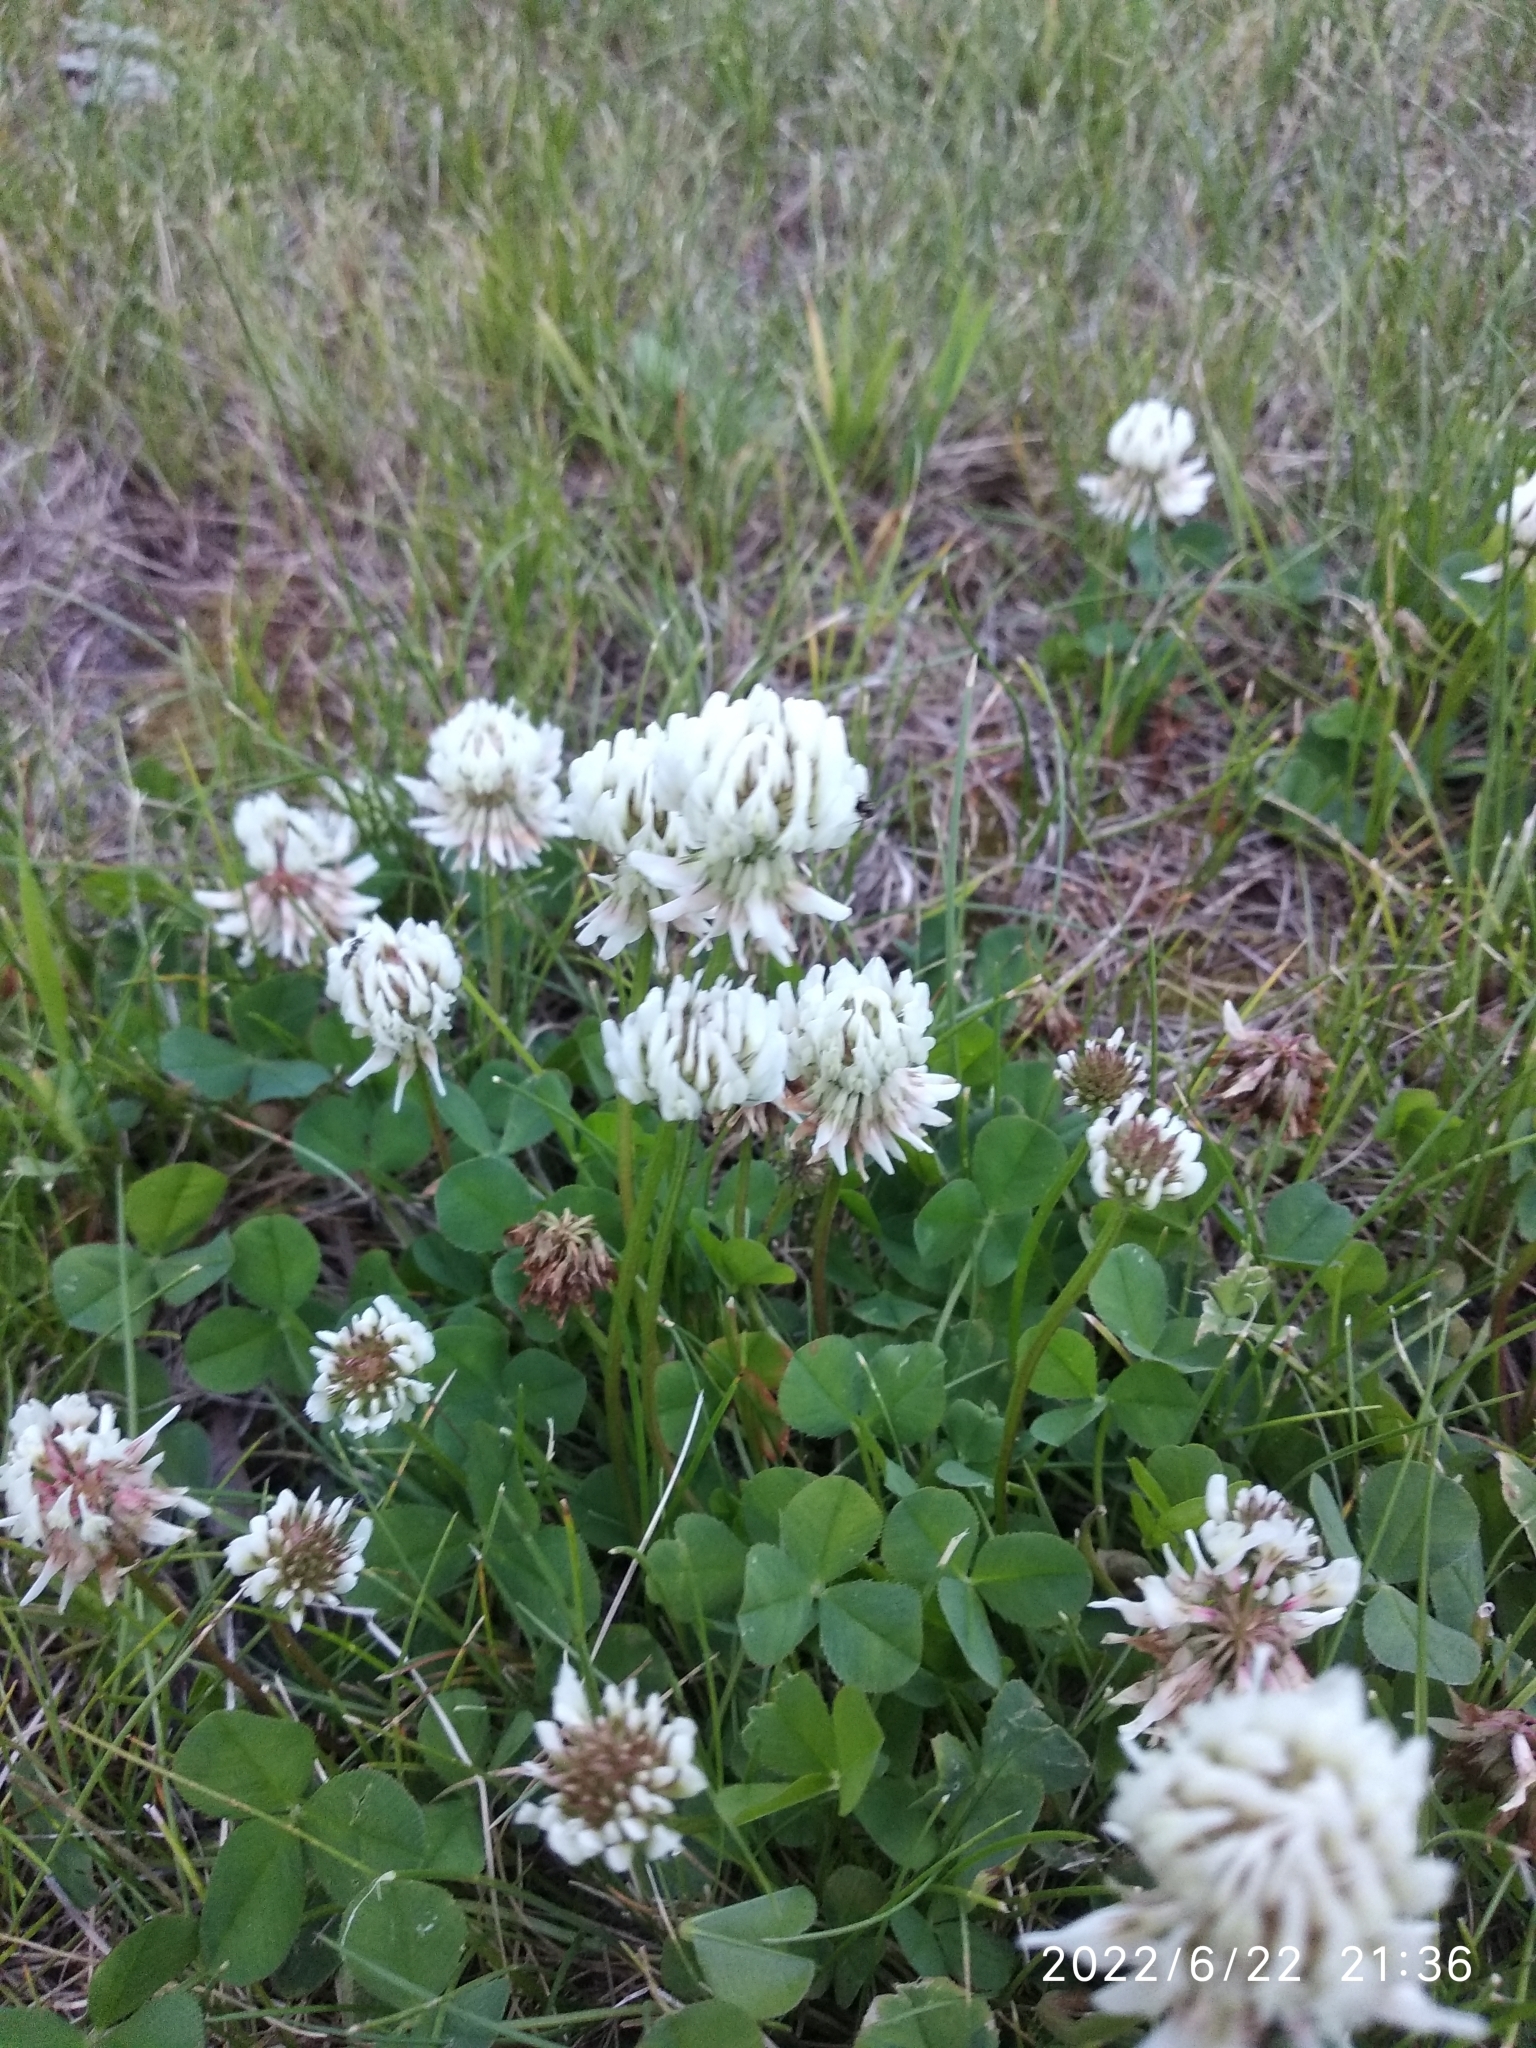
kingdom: Plantae
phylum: Tracheophyta
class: Magnoliopsida
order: Fabales
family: Fabaceae
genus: Trifolium
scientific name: Trifolium repens
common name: White clover
